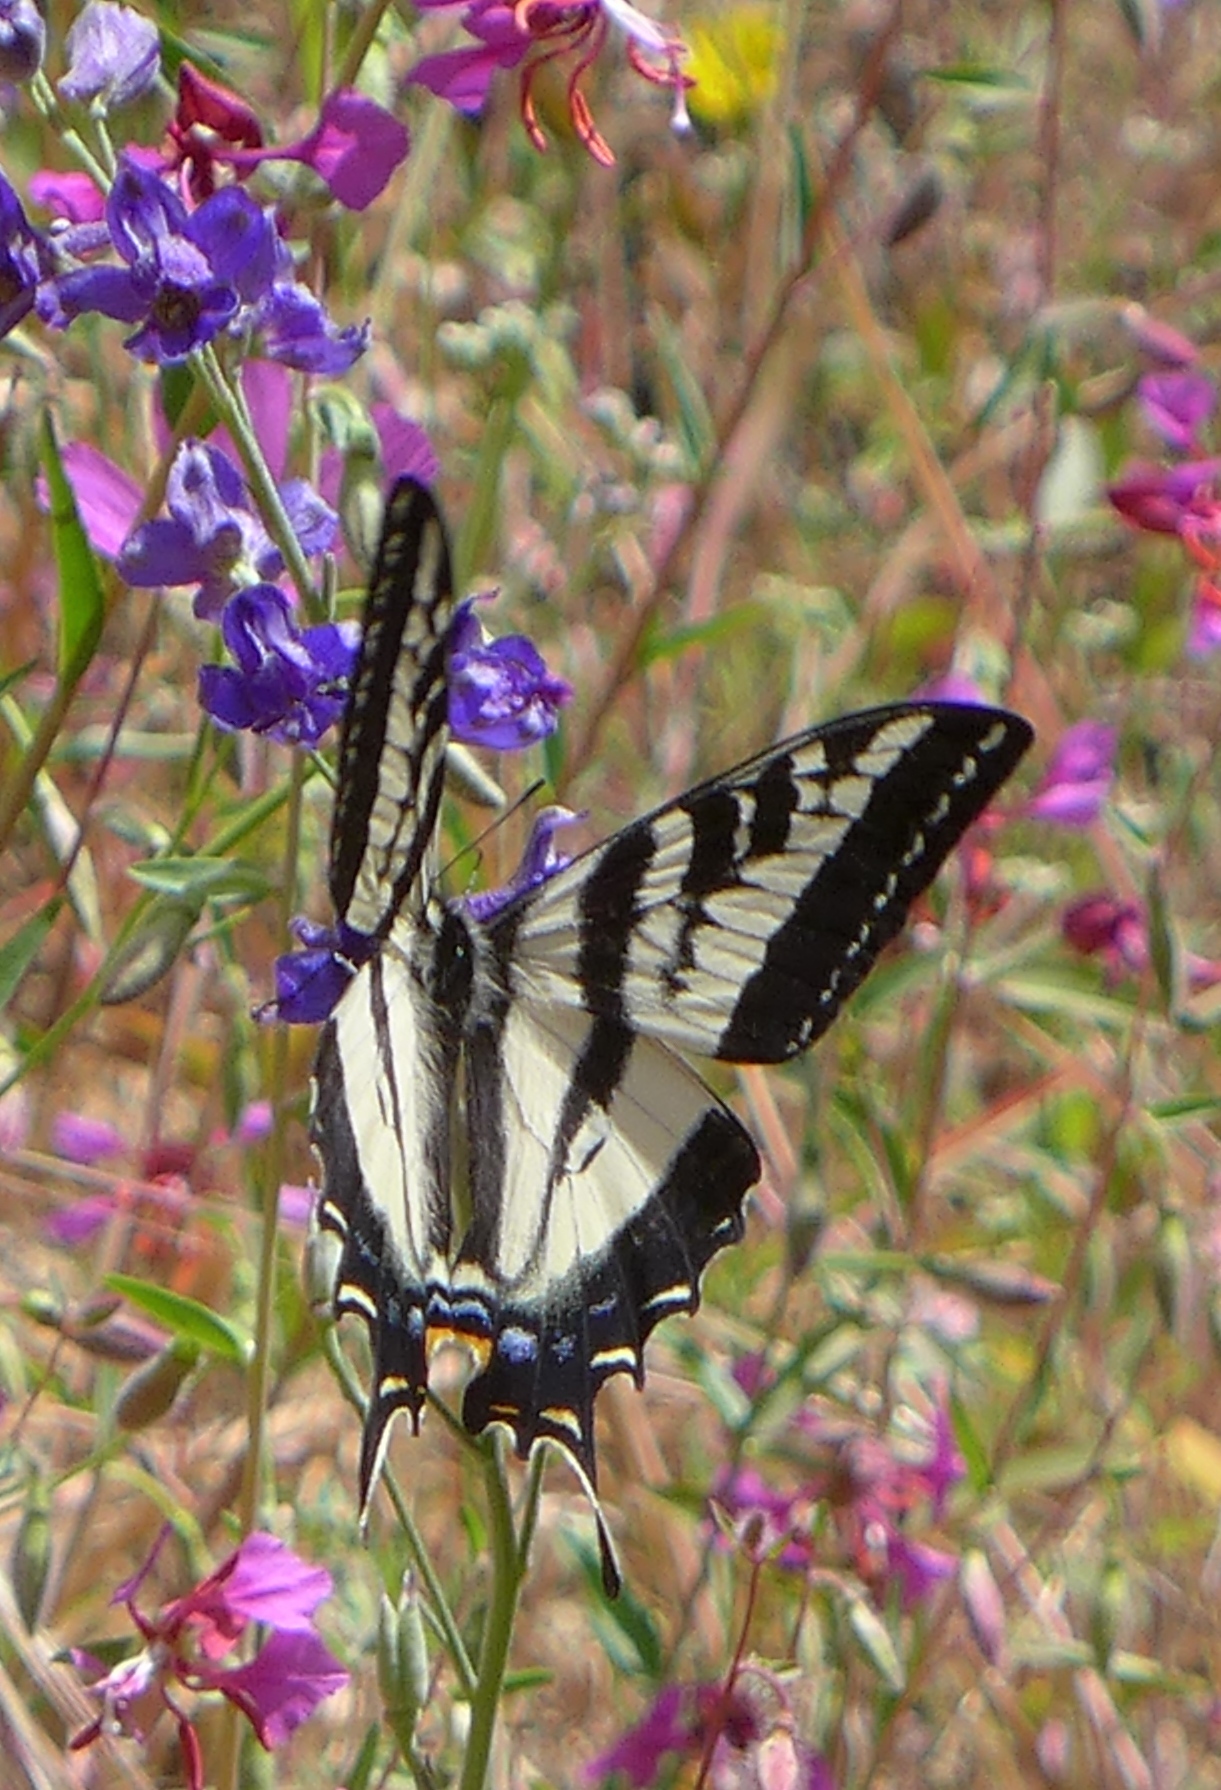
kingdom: Animalia
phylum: Arthropoda
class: Insecta
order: Lepidoptera
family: Papilionidae
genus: Papilio
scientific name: Papilio eurymedon
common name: Pale tiger swallowtail
